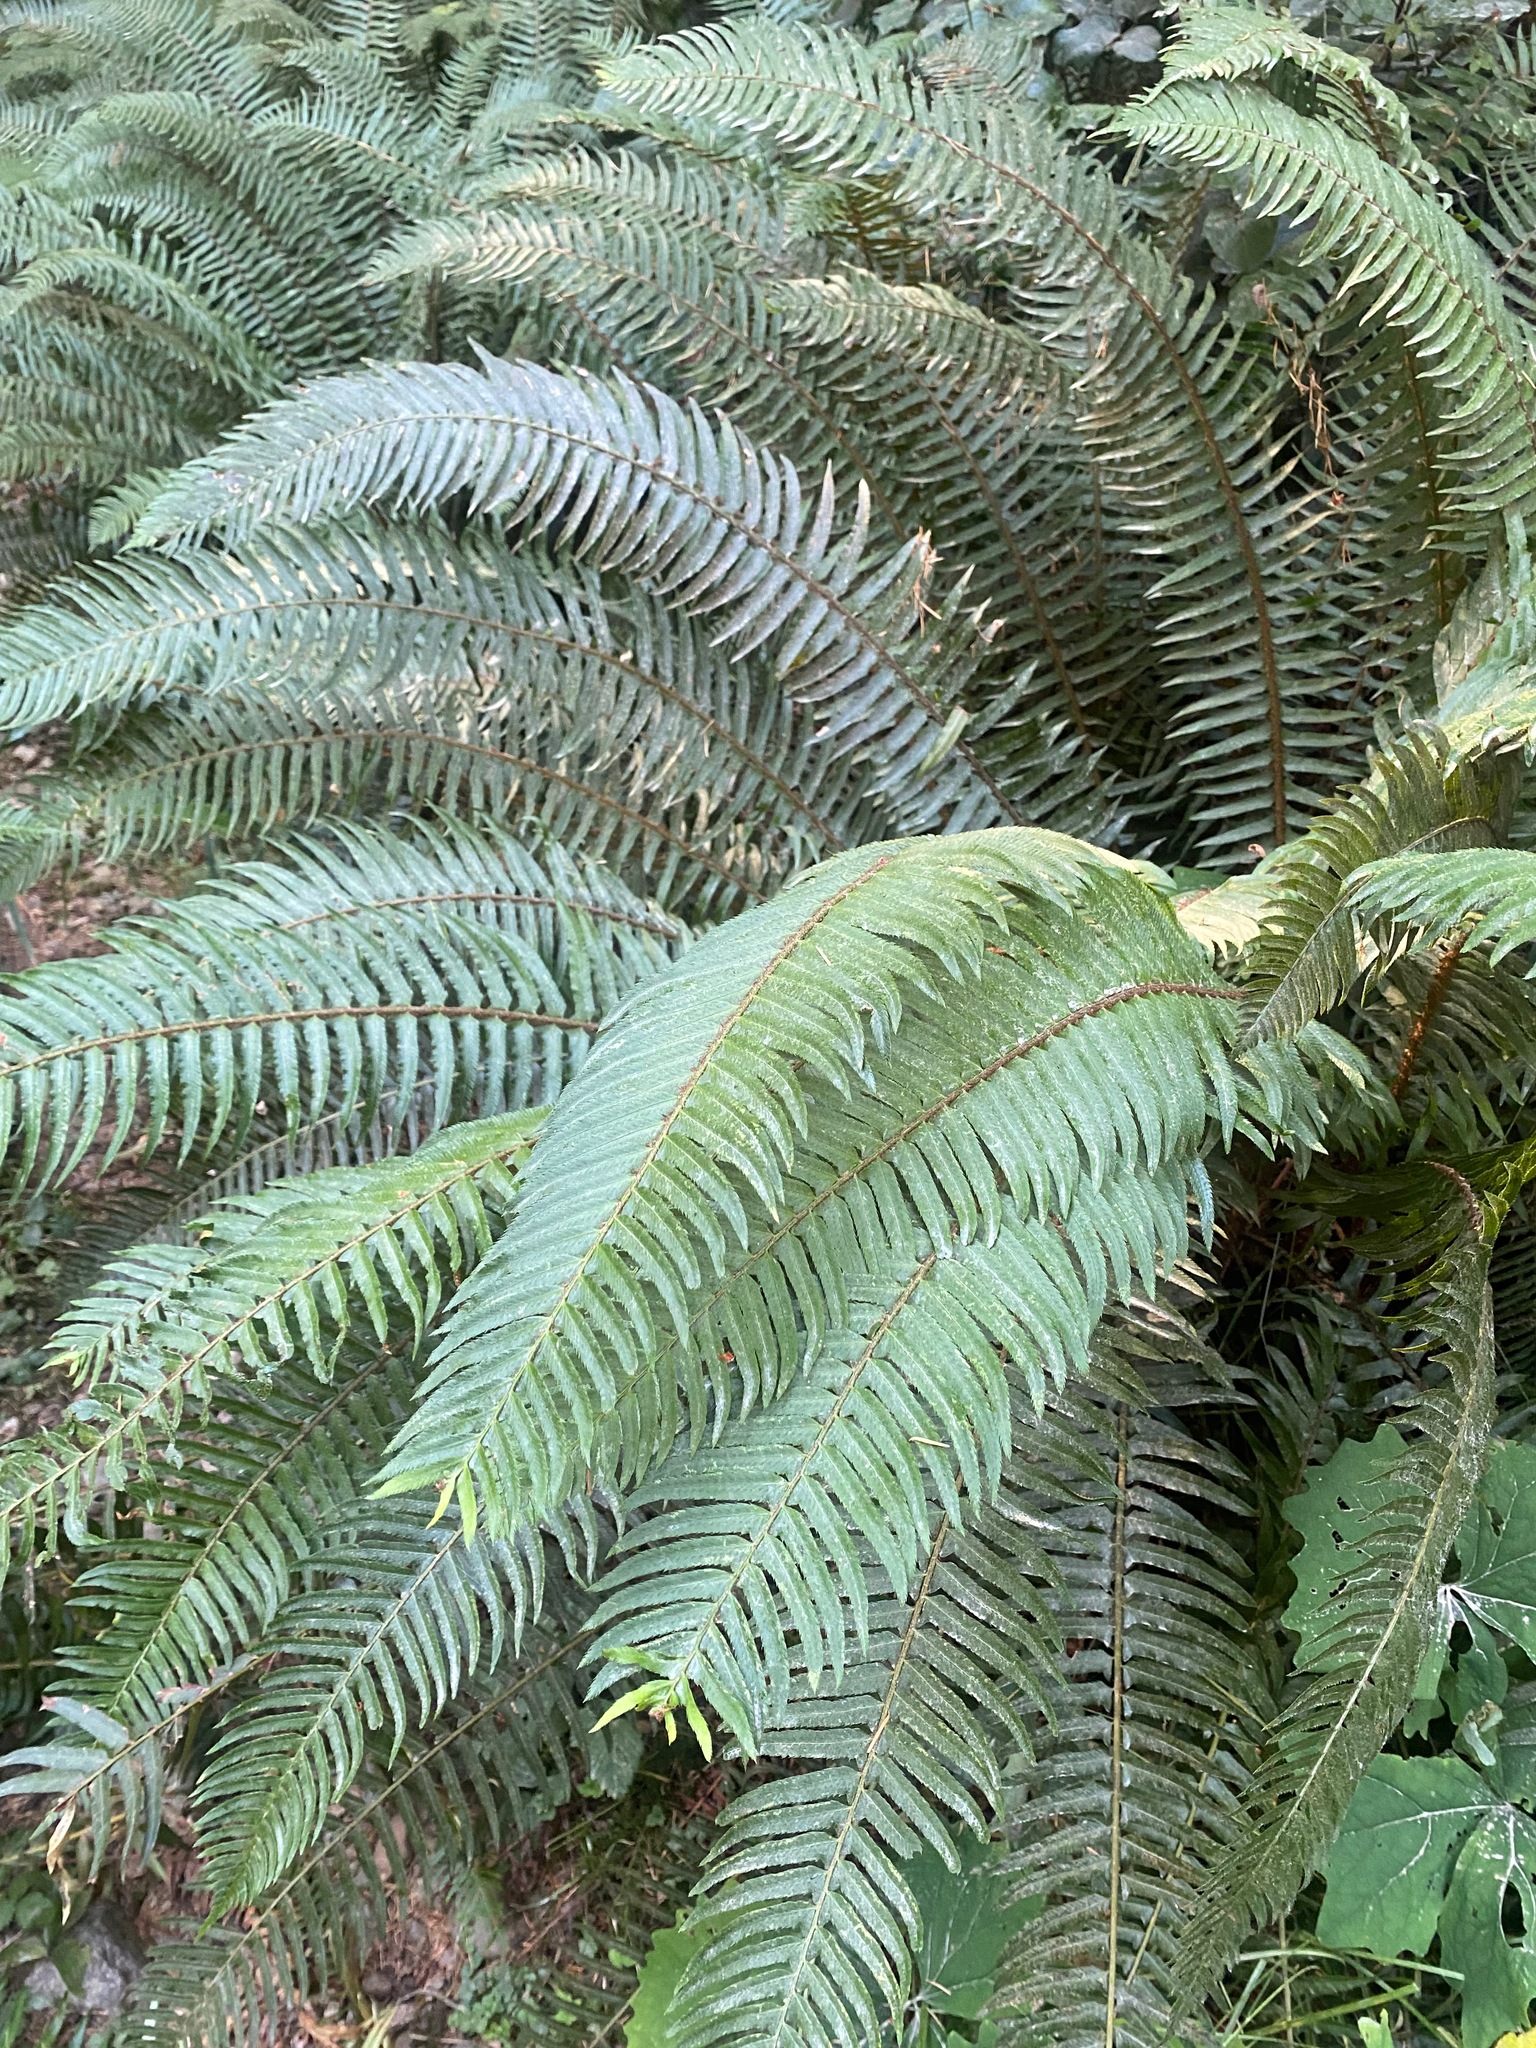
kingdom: Plantae
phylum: Tracheophyta
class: Polypodiopsida
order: Polypodiales
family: Dryopteridaceae
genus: Polystichum
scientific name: Polystichum munitum
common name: Western sword-fern
